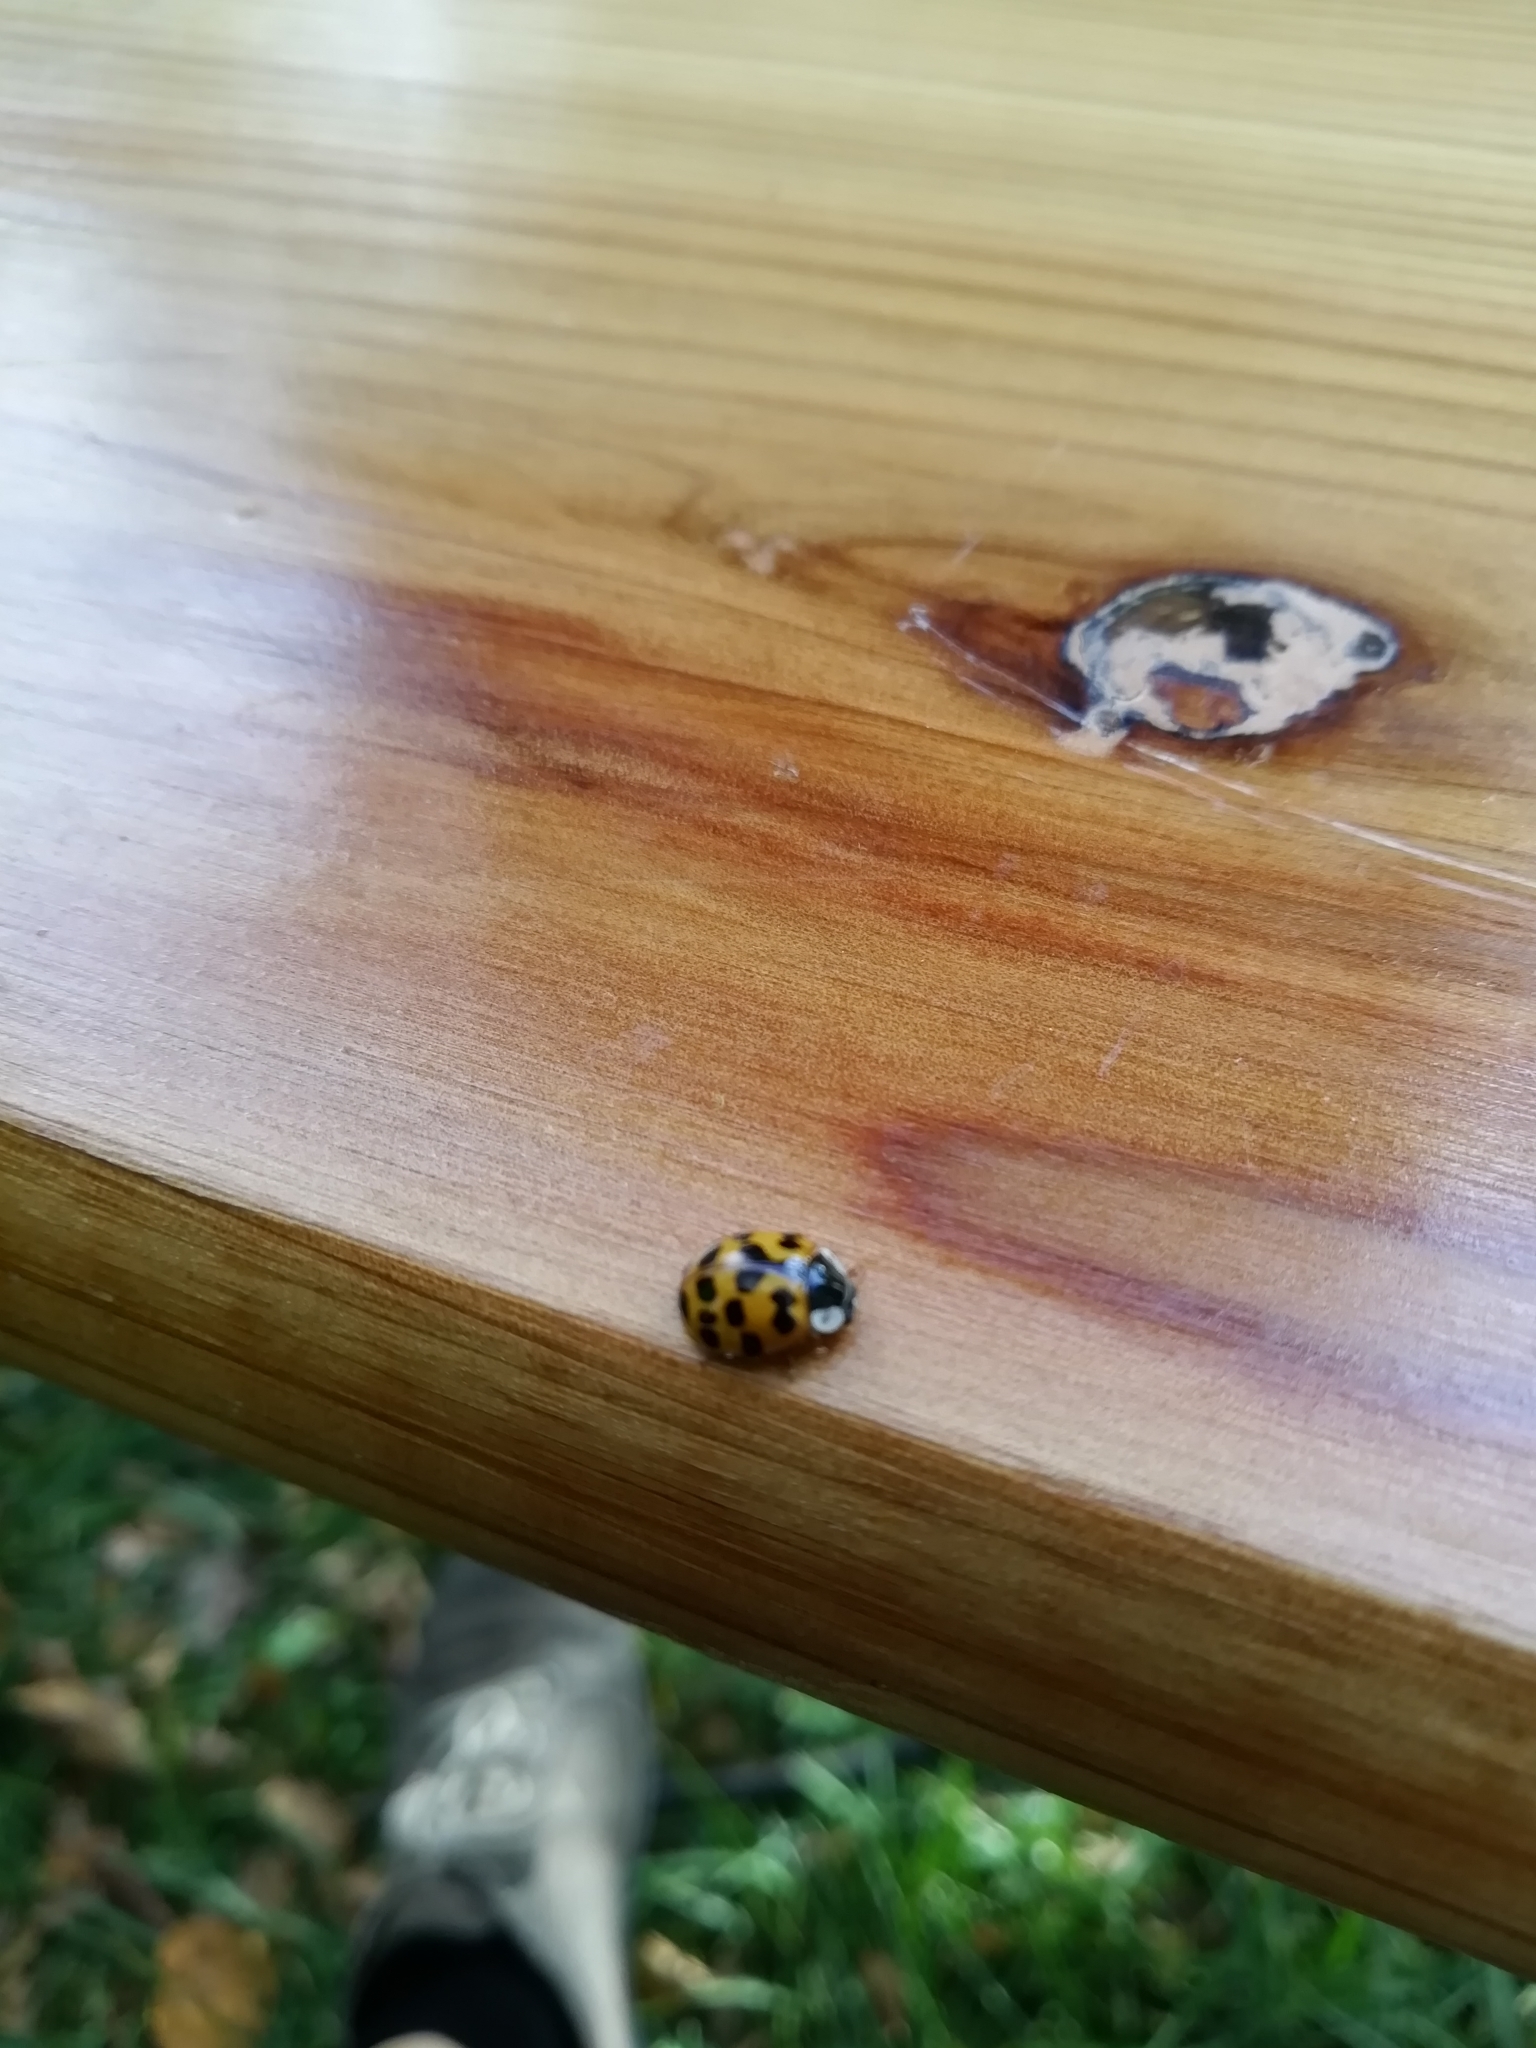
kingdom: Animalia
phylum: Arthropoda
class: Insecta
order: Coleoptera
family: Coccinellidae
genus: Harmonia
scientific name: Harmonia axyridis
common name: Harlequin ladybird
